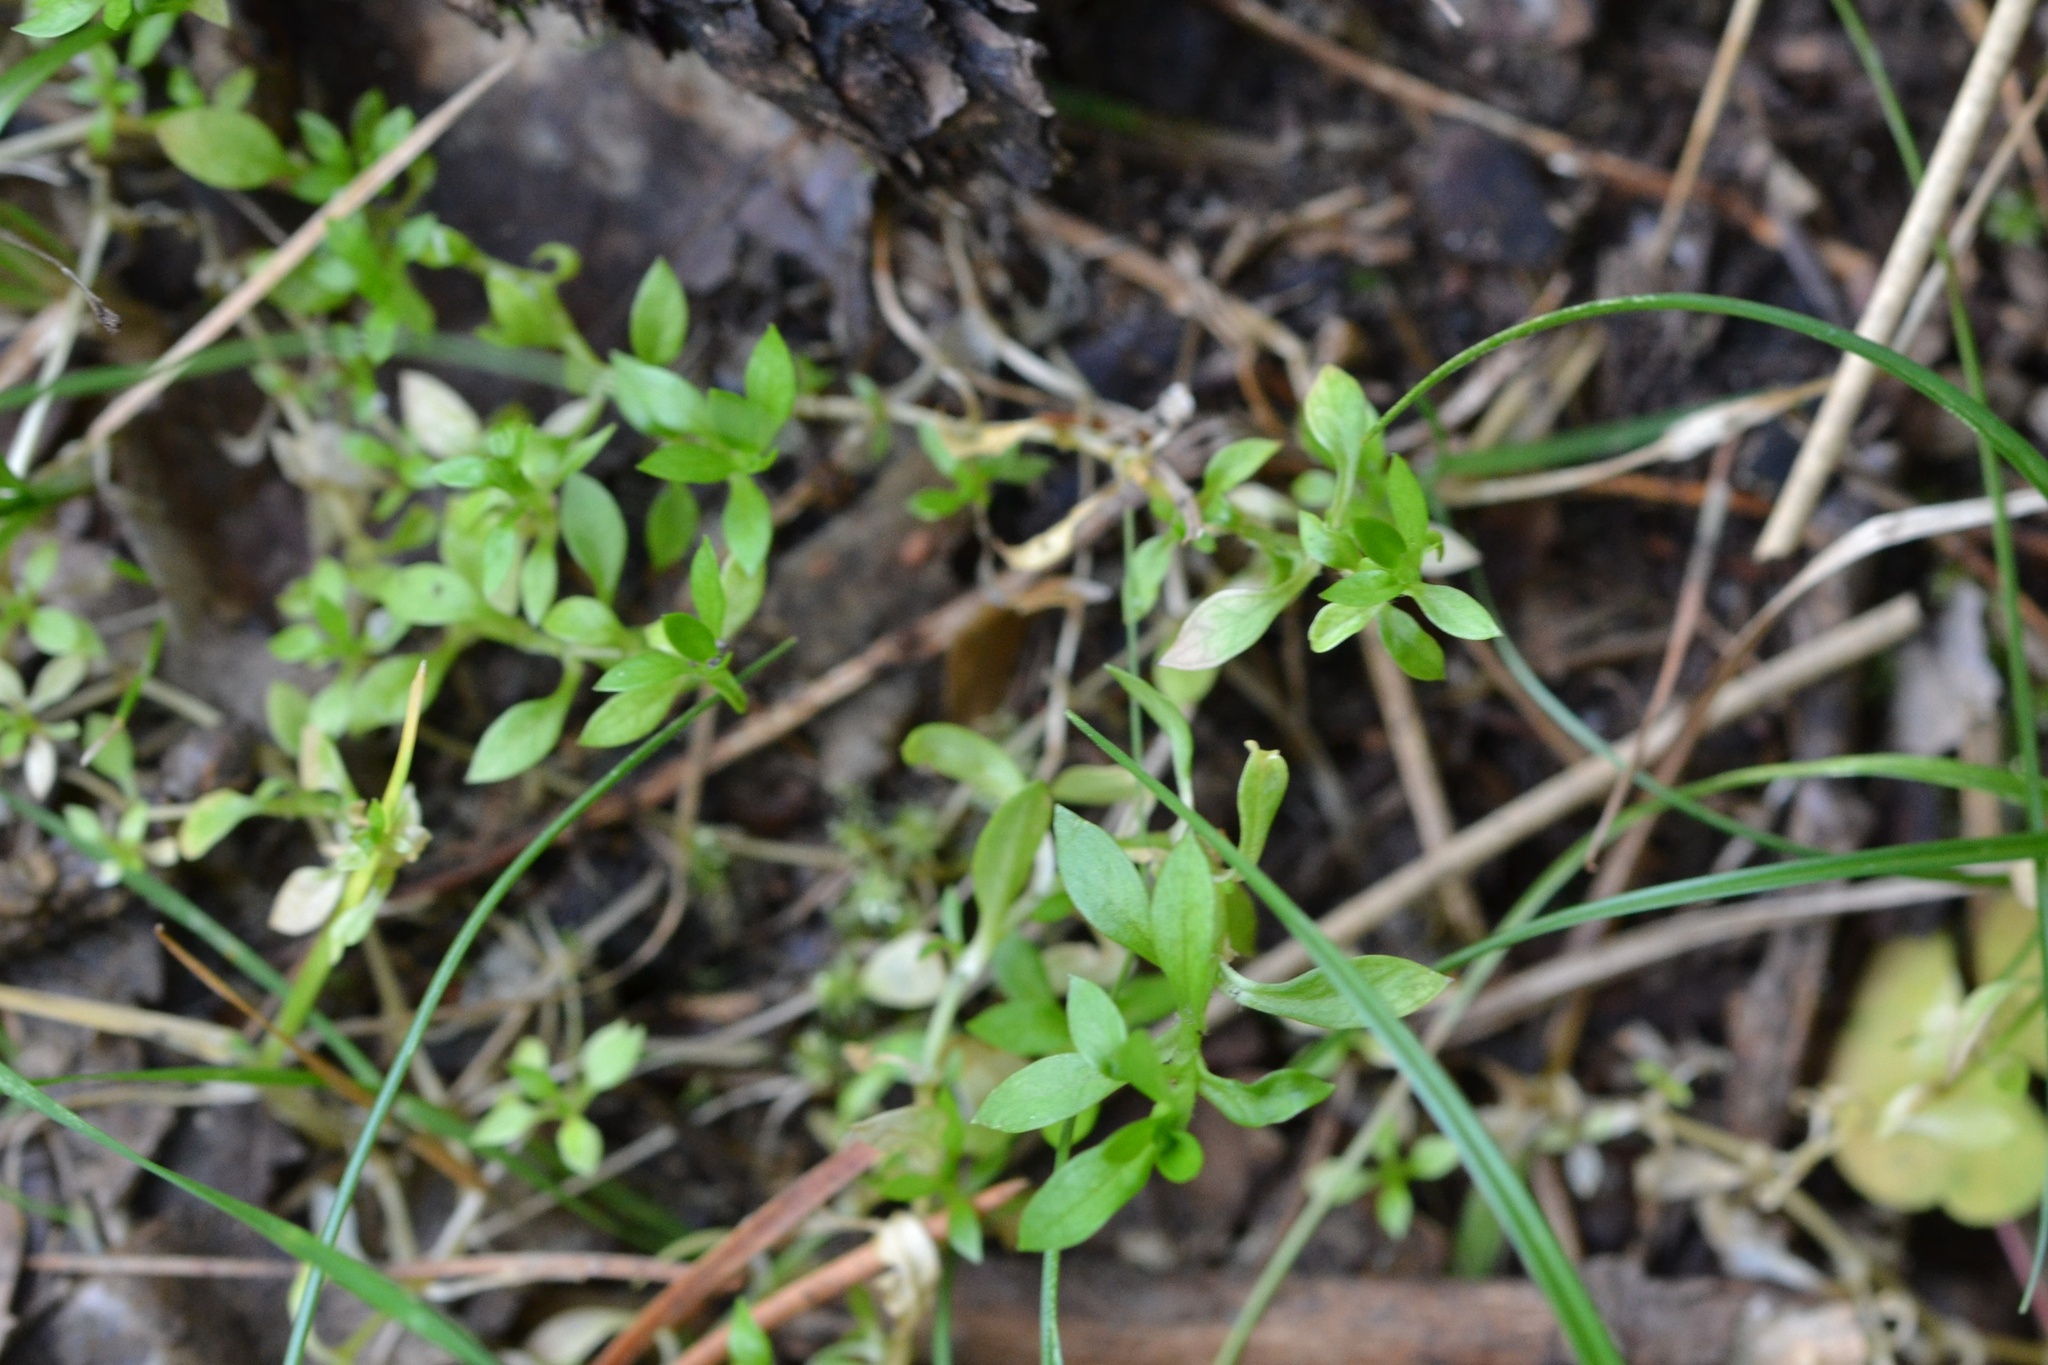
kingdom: Plantae
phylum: Tracheophyta
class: Magnoliopsida
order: Caryophyllales
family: Caryophyllaceae
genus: Stellaria
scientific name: Stellaria alsine
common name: Bog stitchwort
